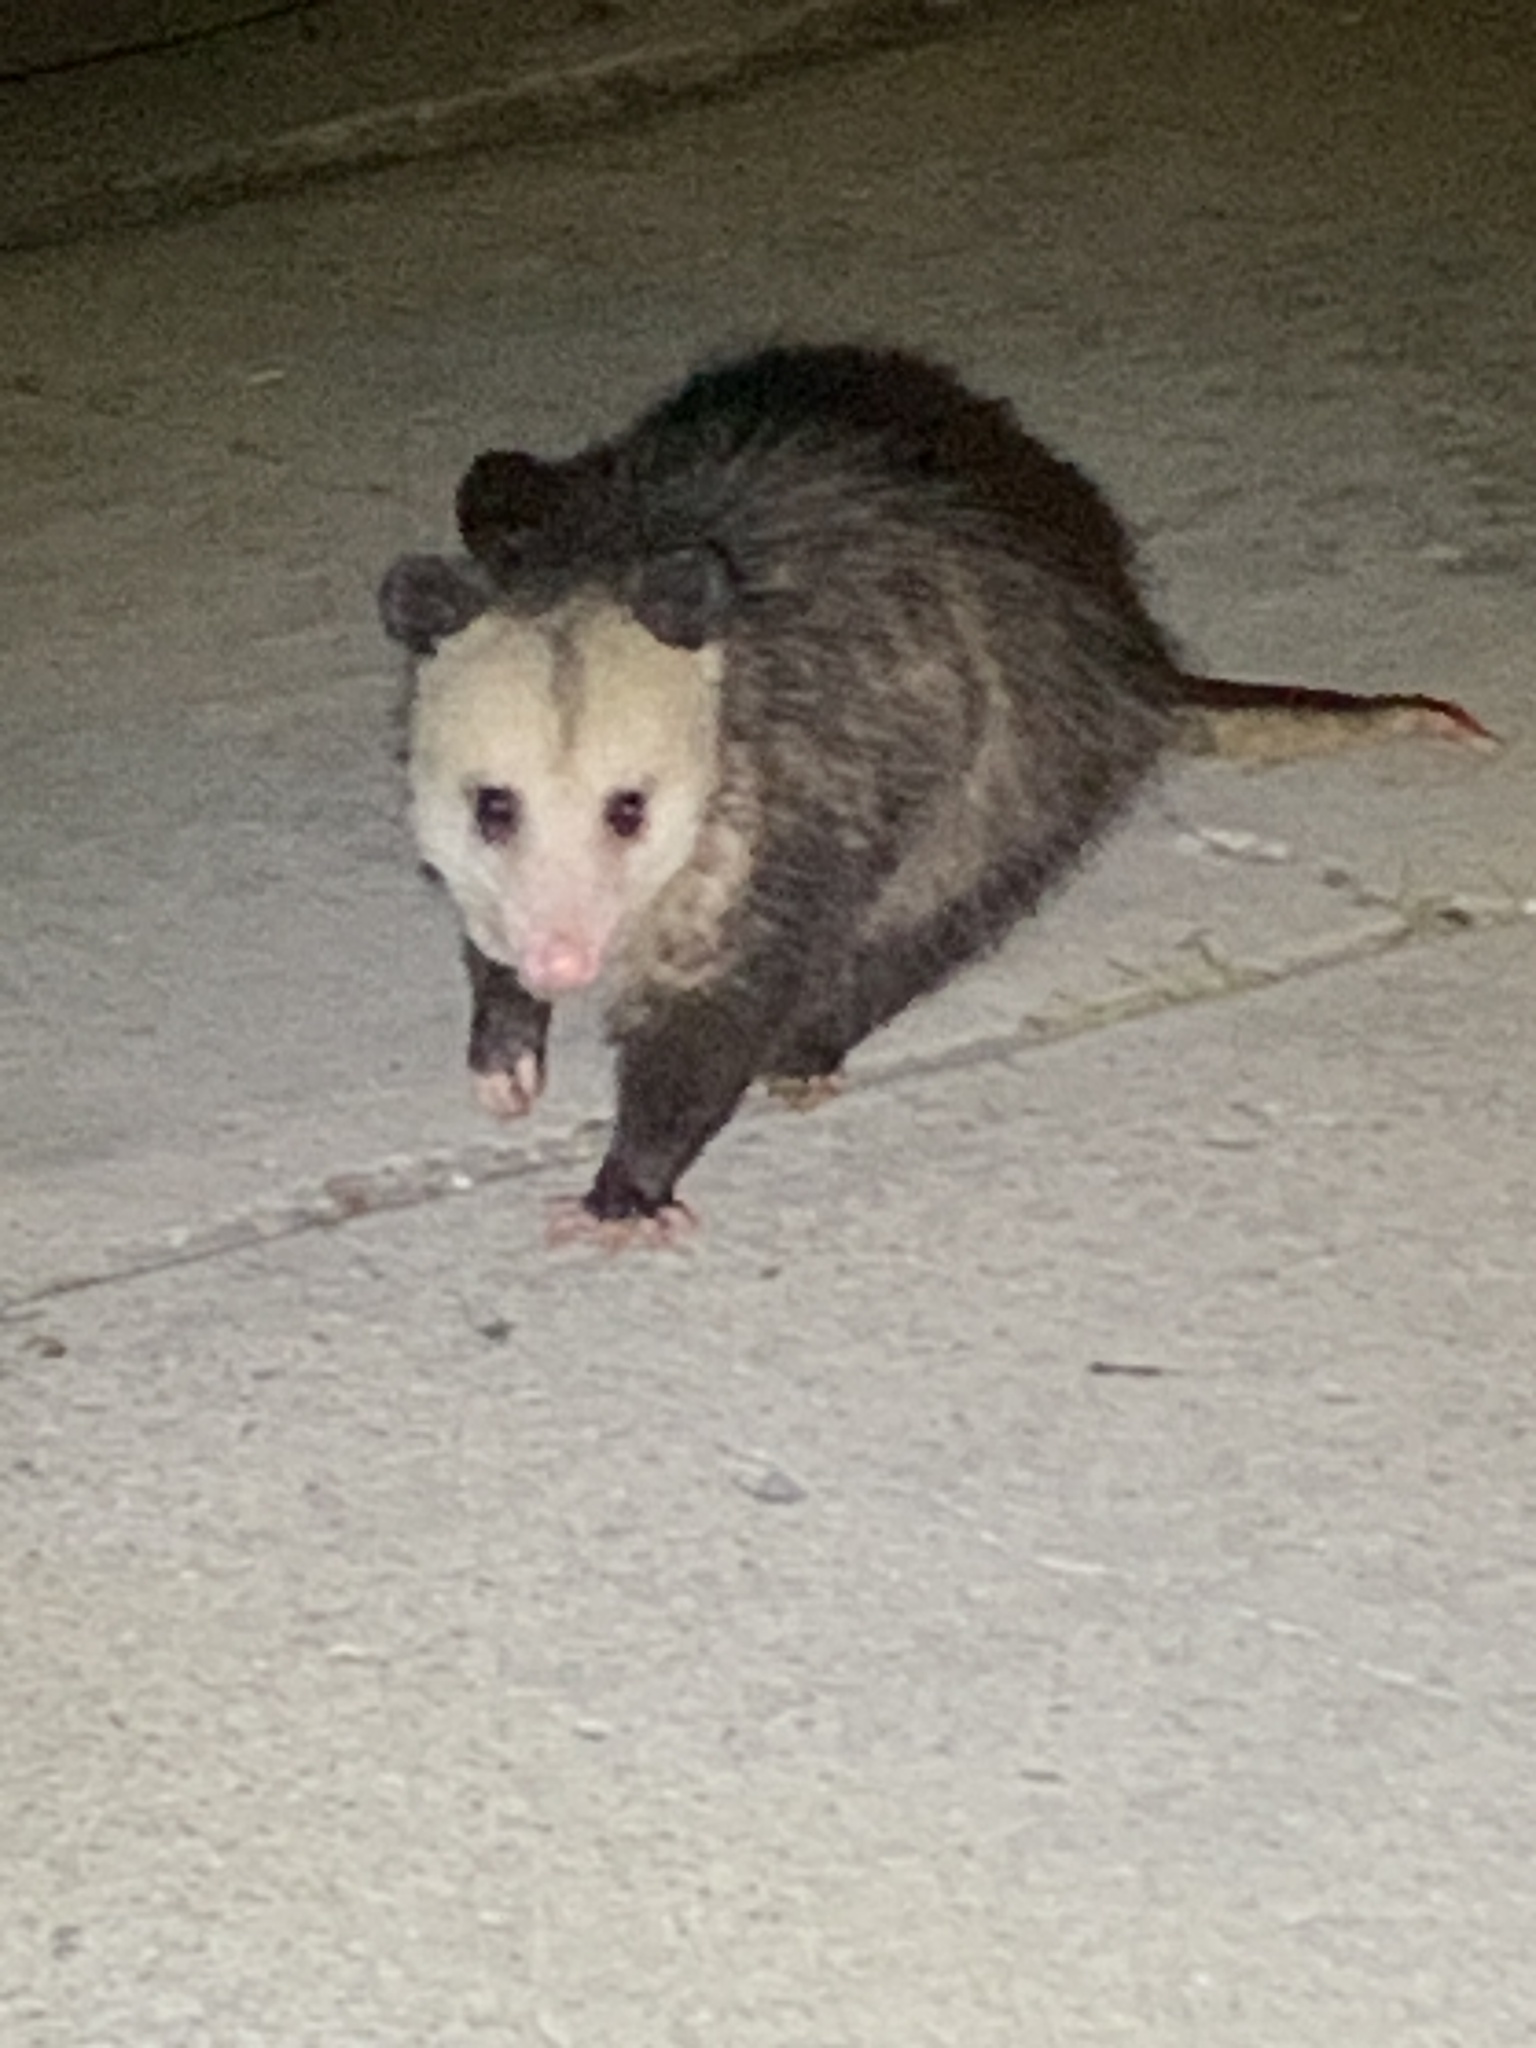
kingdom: Animalia
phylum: Chordata
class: Mammalia
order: Didelphimorphia
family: Didelphidae
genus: Didelphis
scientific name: Didelphis virginiana
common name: Virginia opossum
